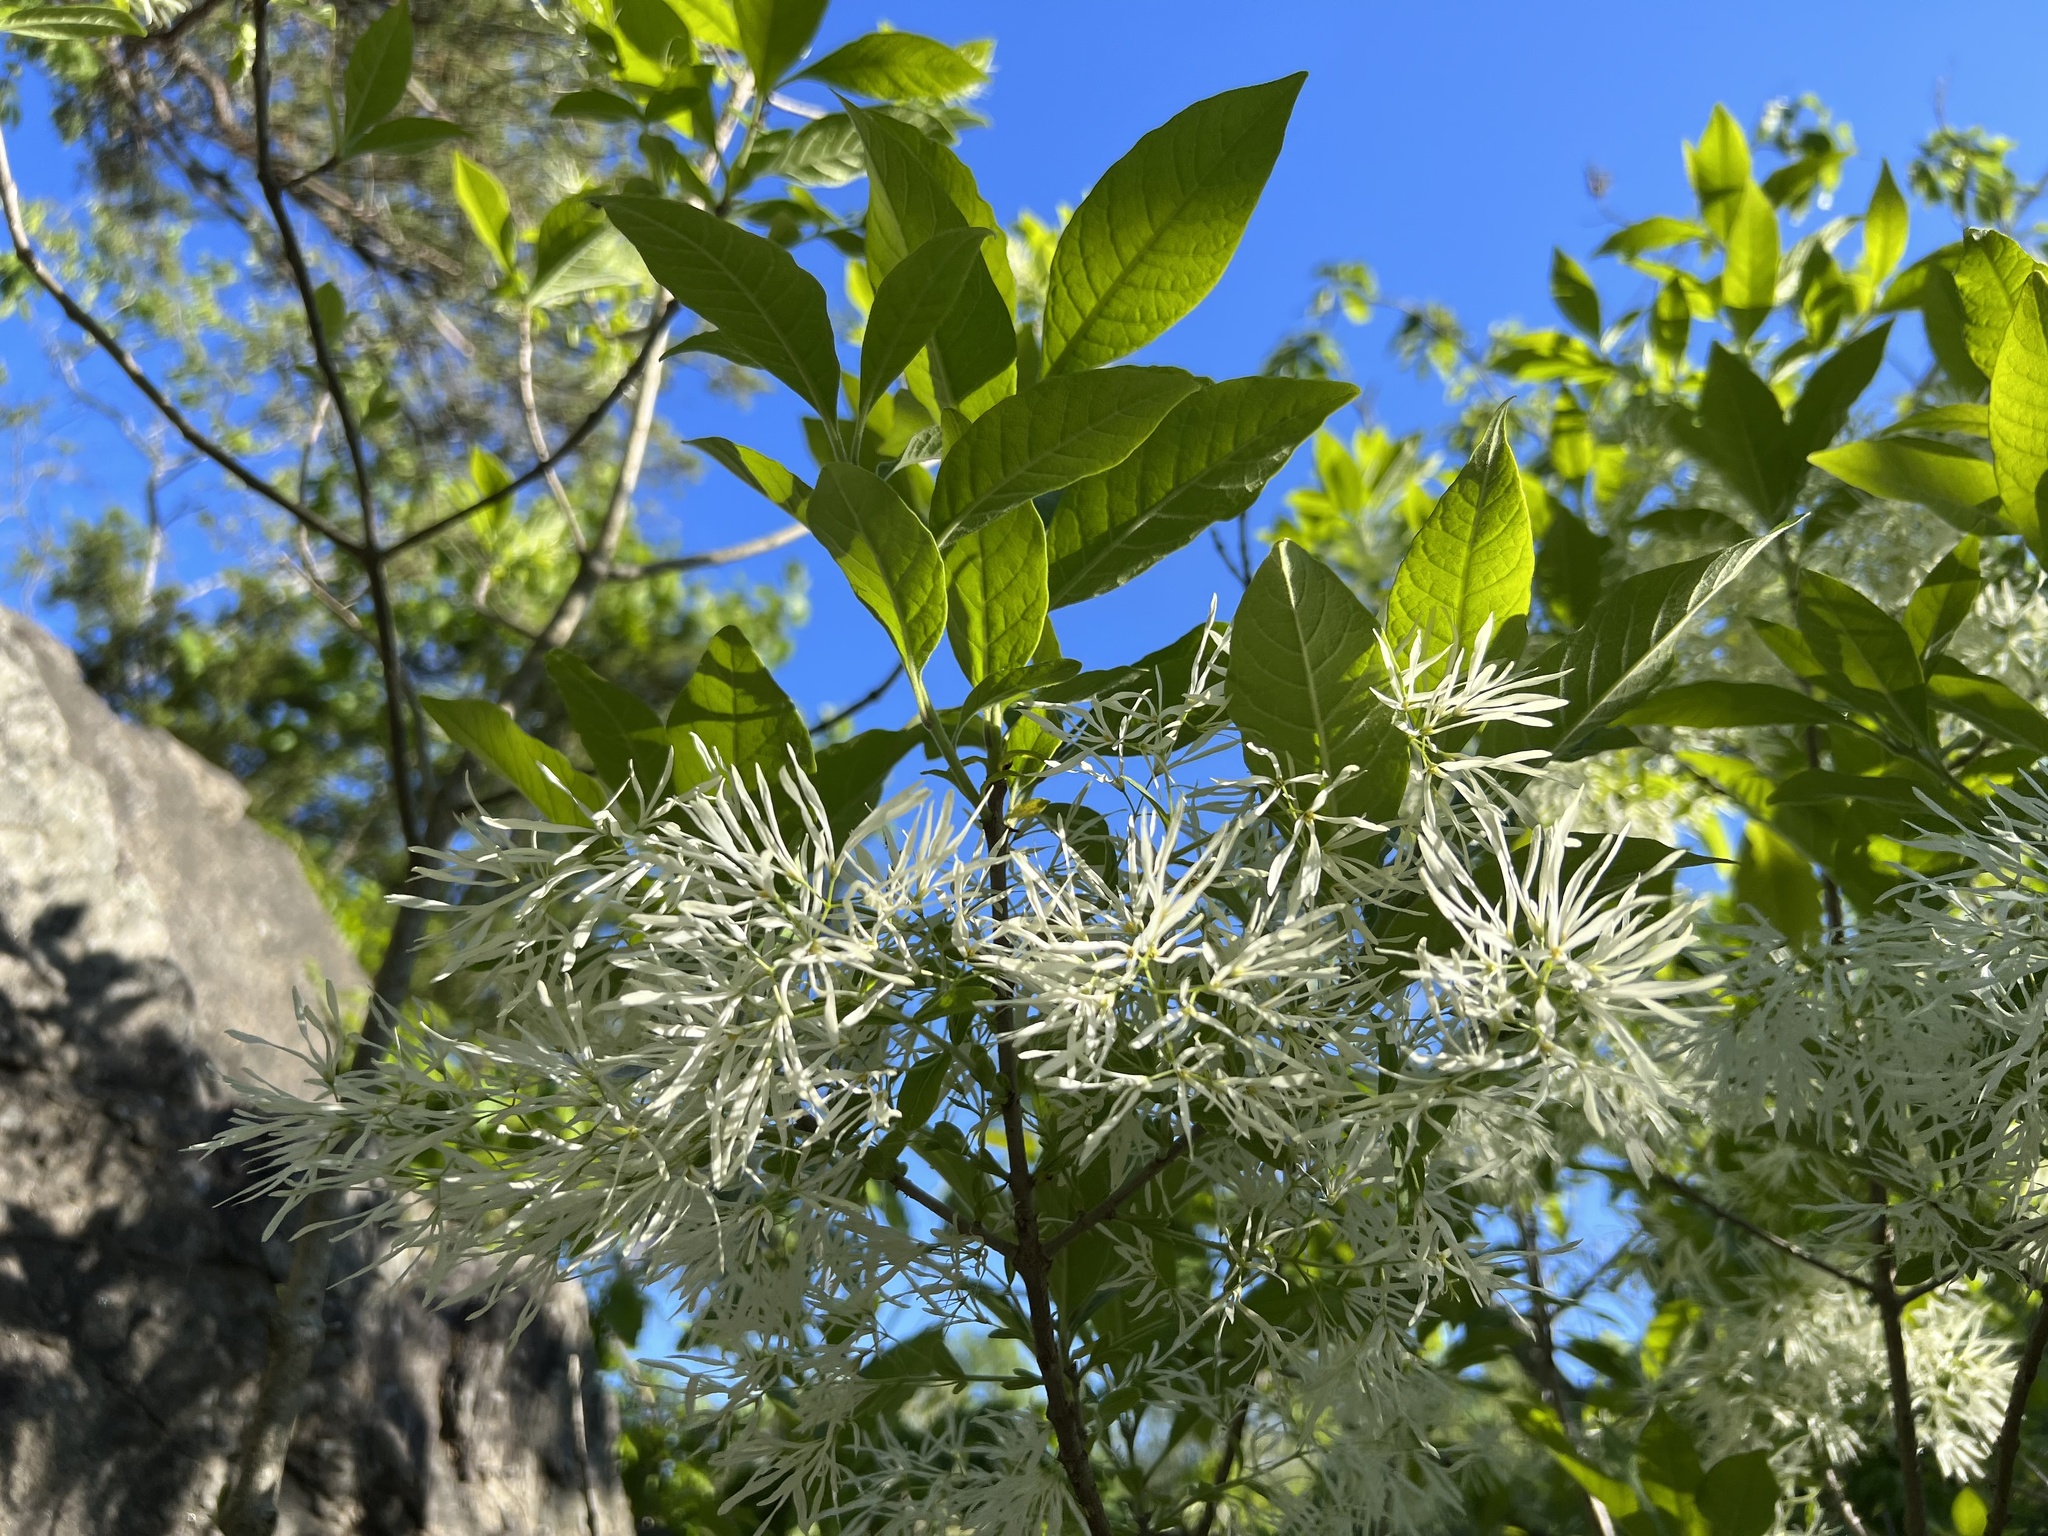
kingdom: Plantae
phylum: Tracheophyta
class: Magnoliopsida
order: Lamiales
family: Oleaceae
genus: Chionanthus
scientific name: Chionanthus virginicus
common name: American fringetree
